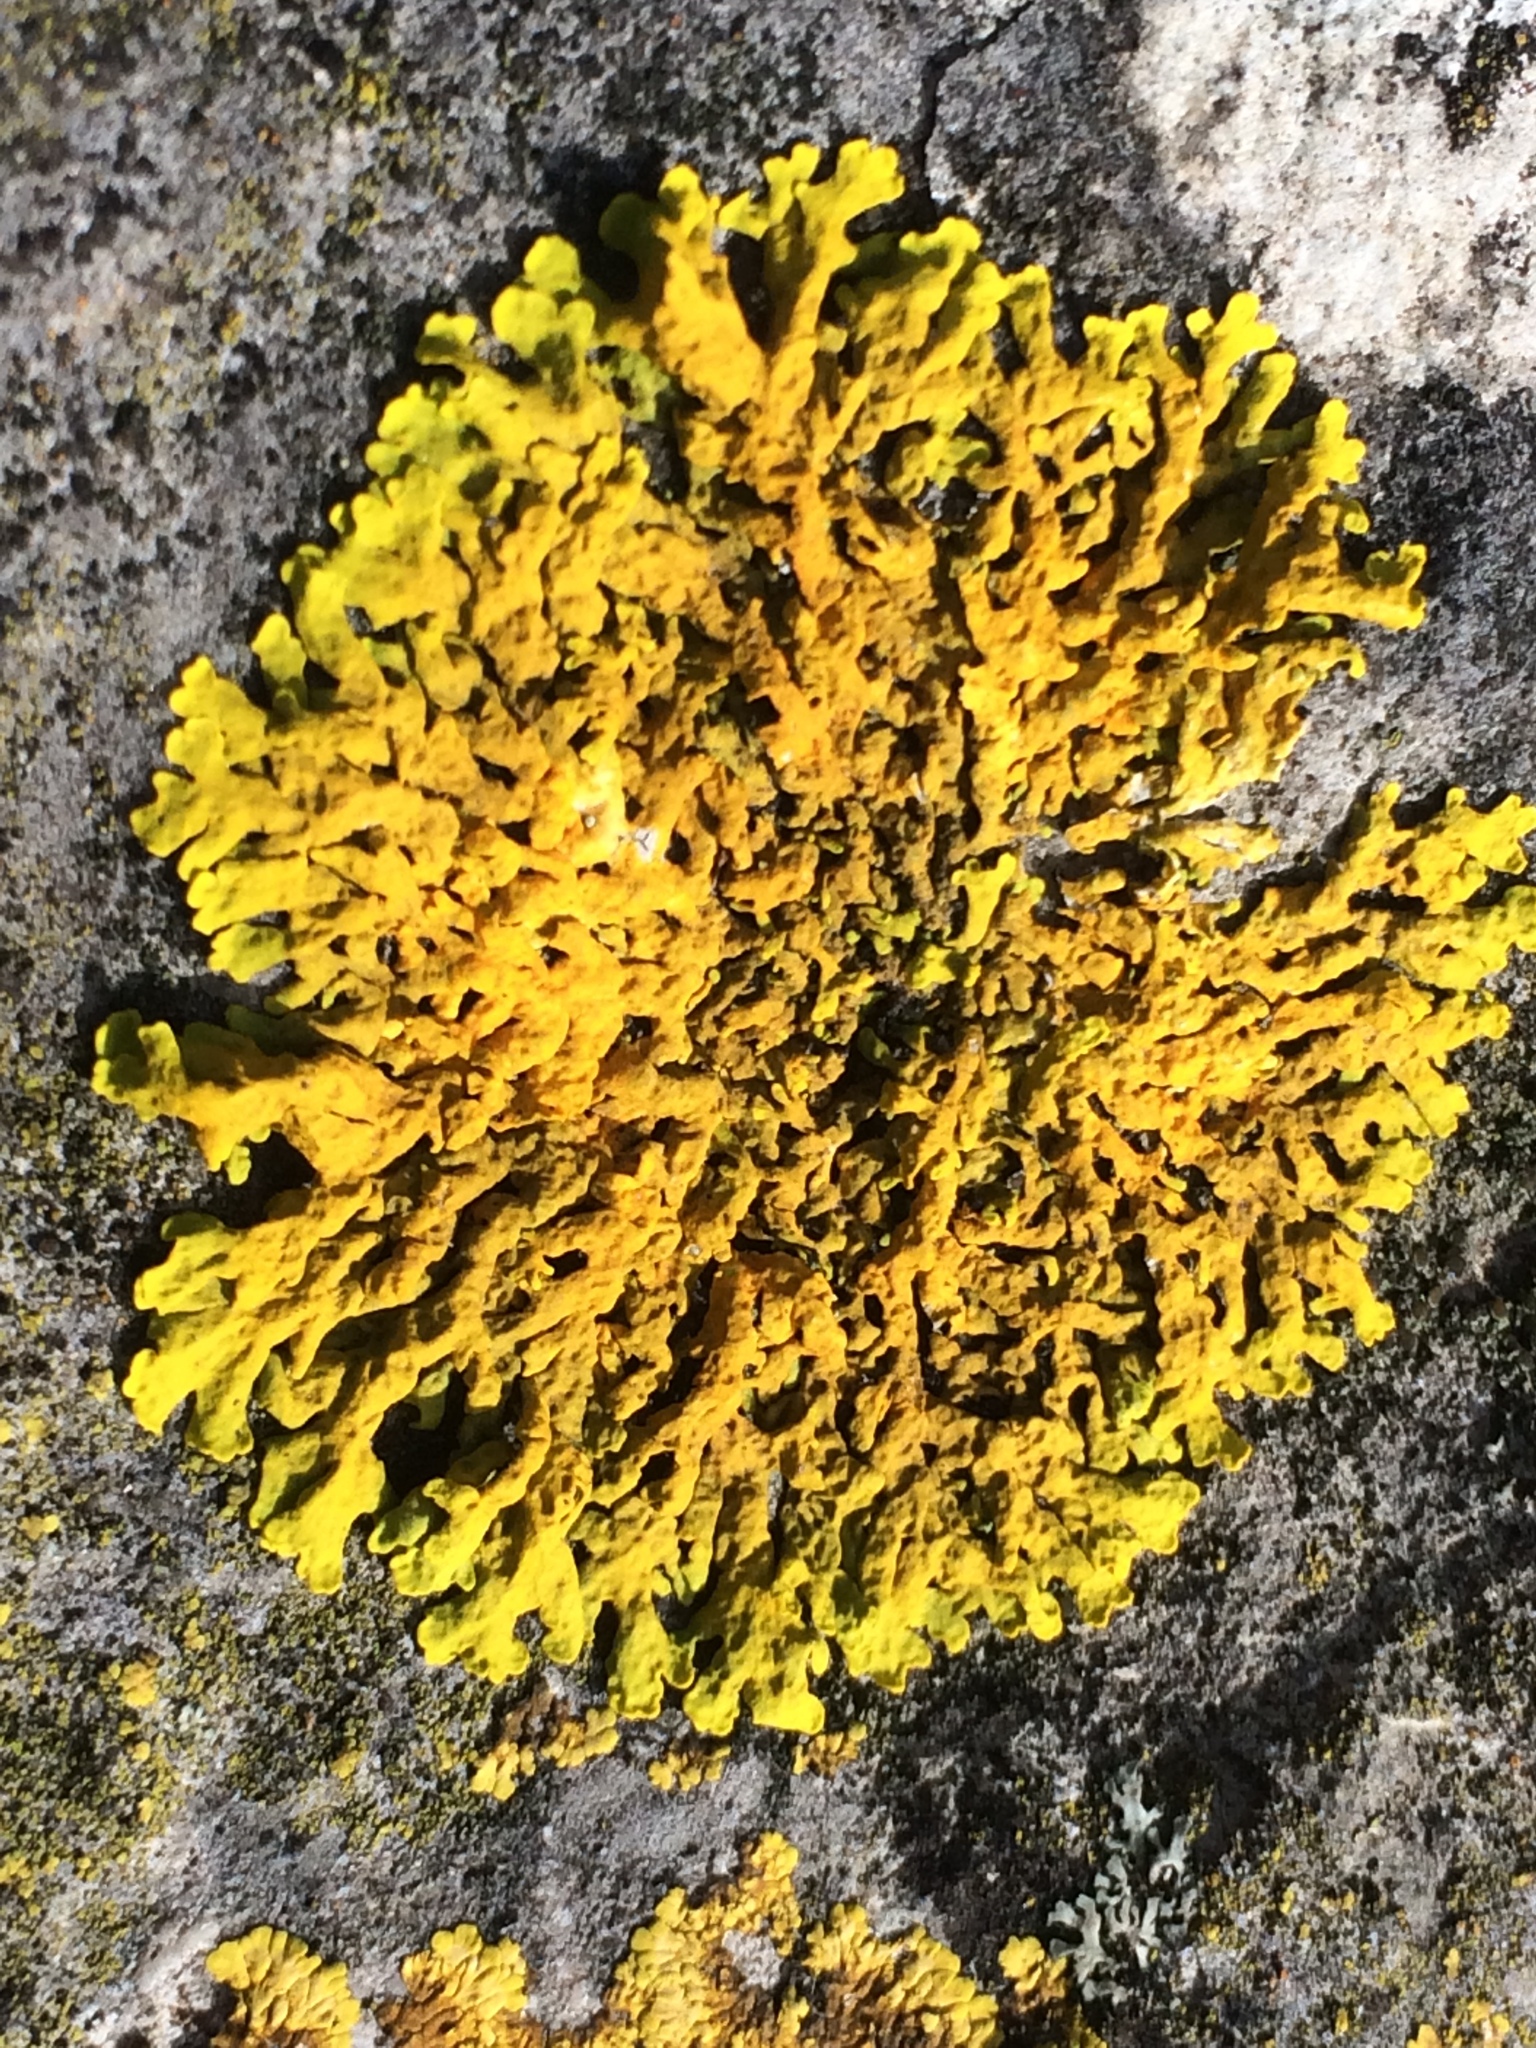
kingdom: Fungi
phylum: Ascomycota
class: Lecanoromycetes
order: Teloschistales
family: Teloschistaceae
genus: Xanthoria
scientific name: Xanthoria parietina
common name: Common orange lichen
